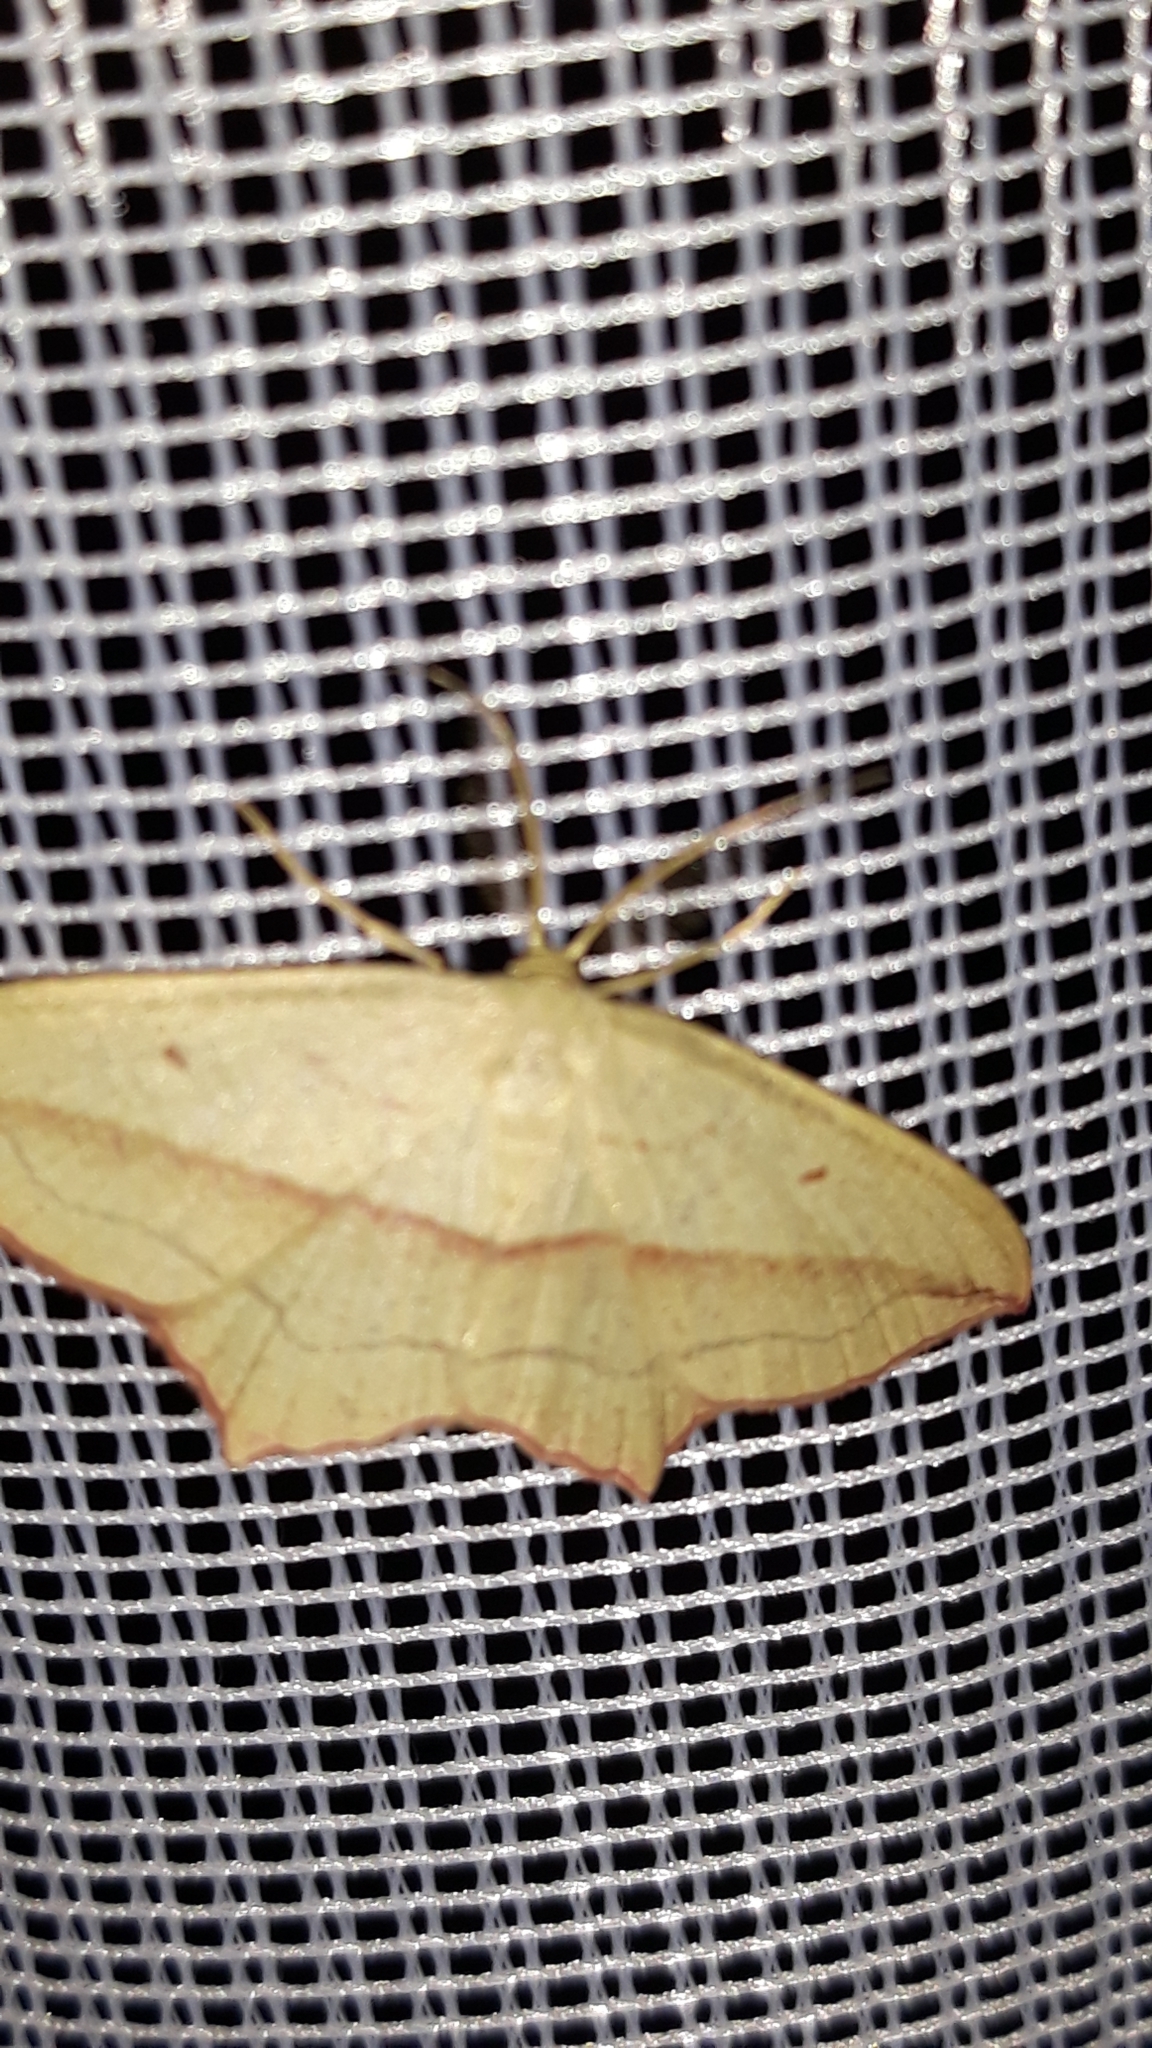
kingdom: Animalia
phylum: Arthropoda
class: Insecta
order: Lepidoptera
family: Geometridae
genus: Timandra
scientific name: Timandra comae
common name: Blood-vein
